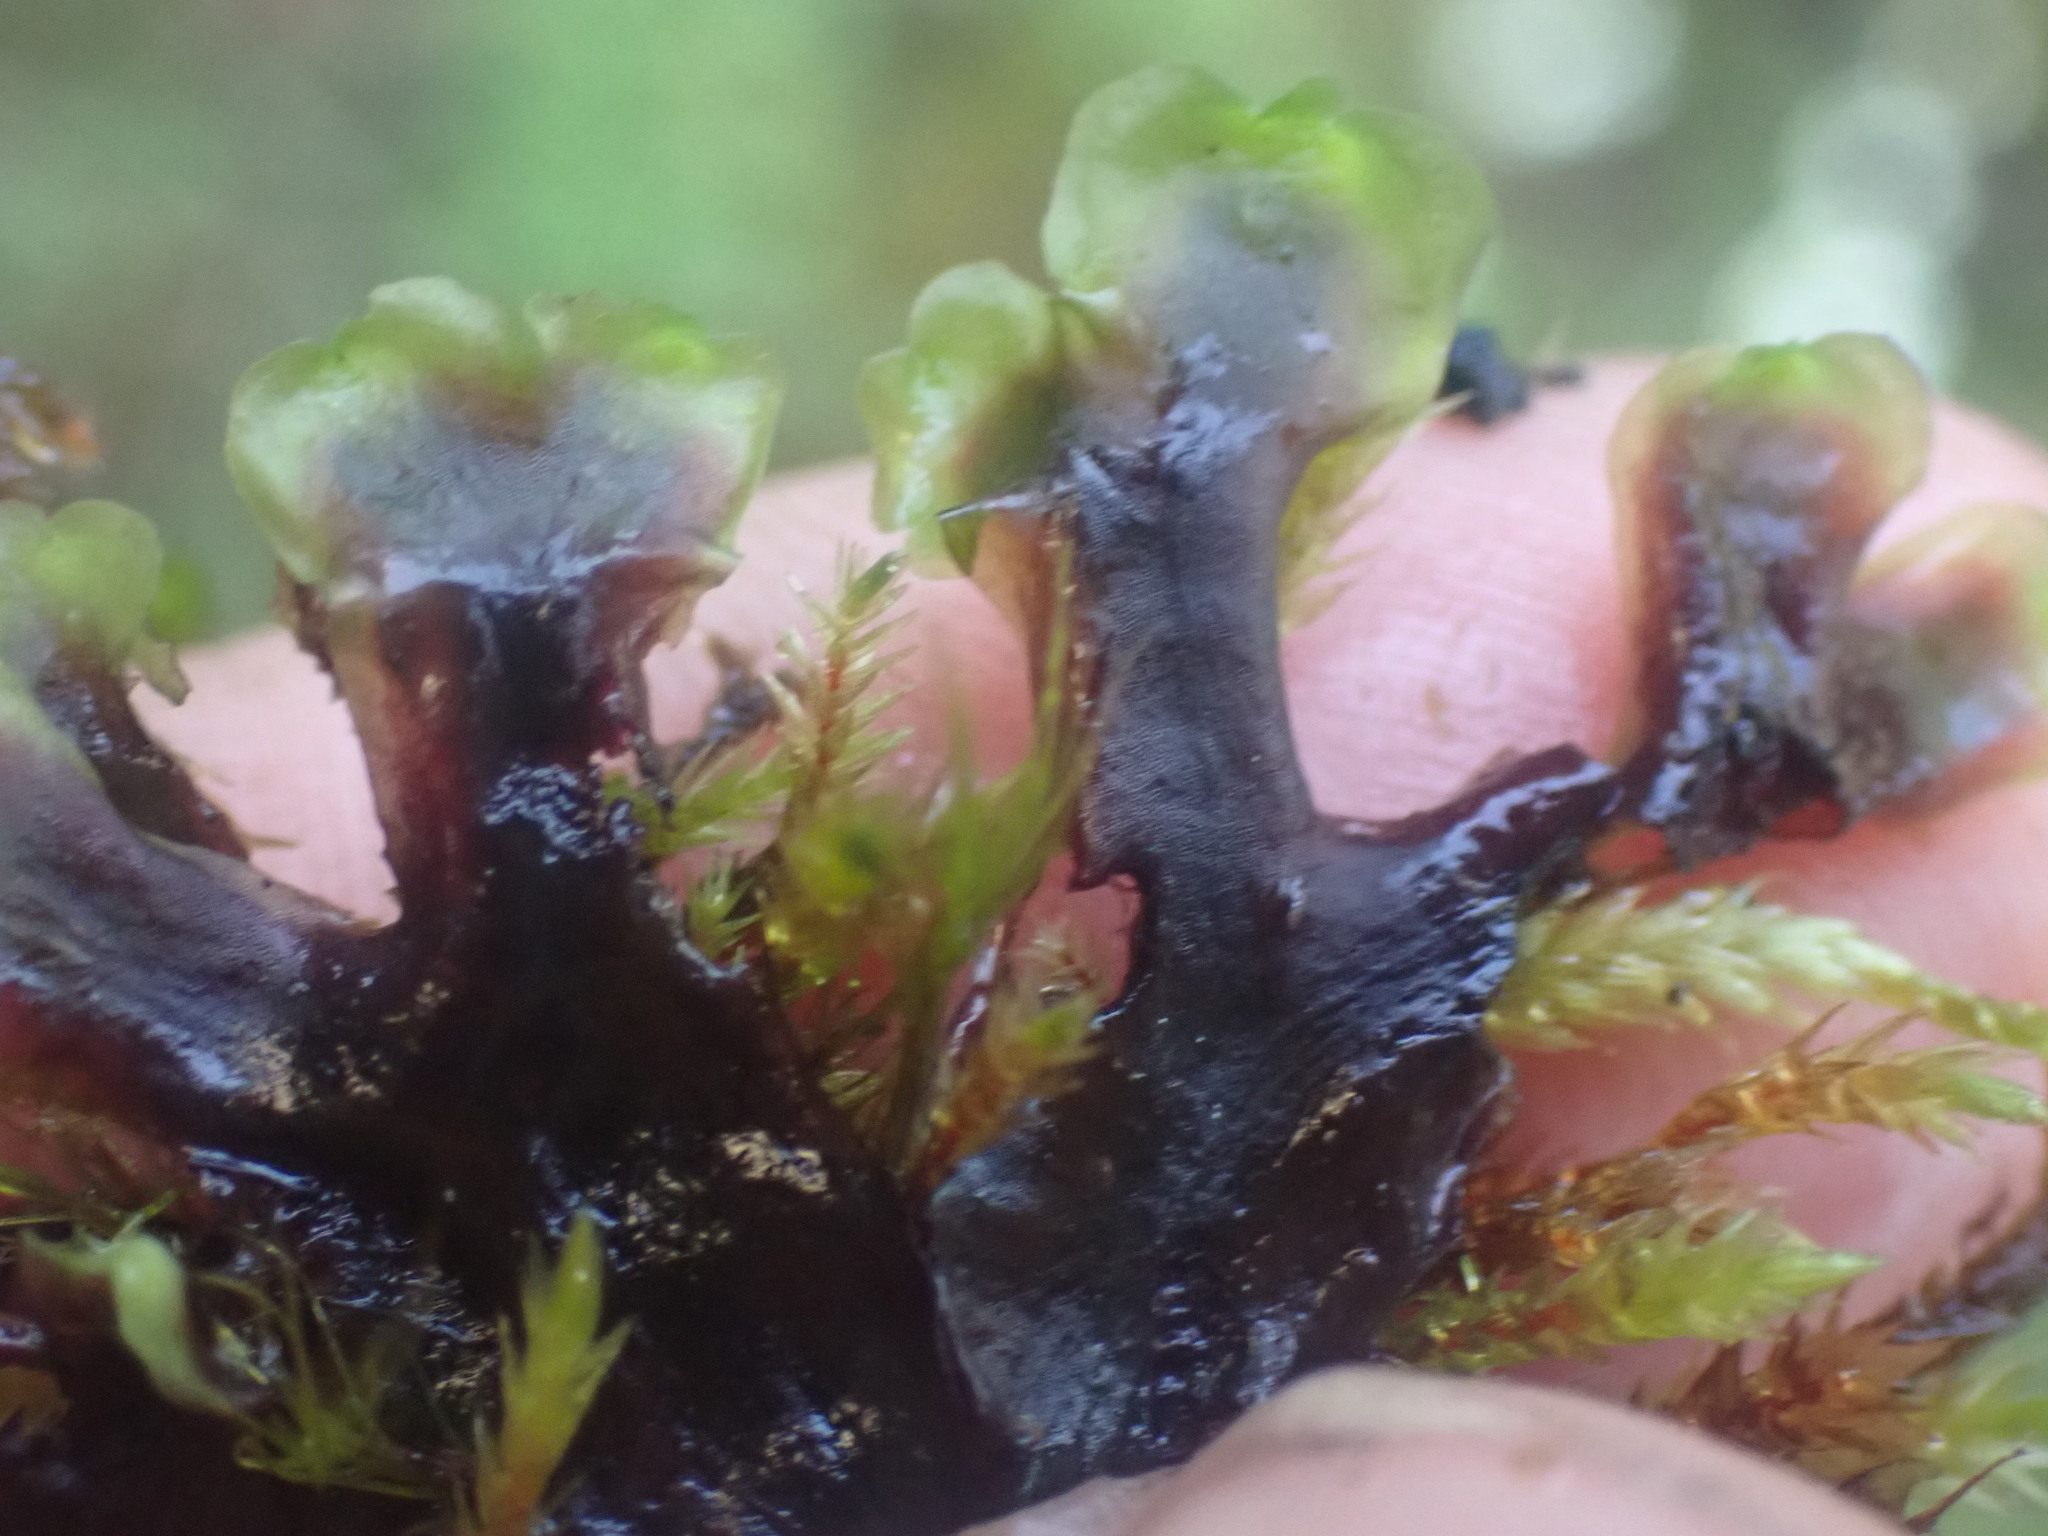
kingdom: Plantae
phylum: Marchantiophyta
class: Jungermanniopsida
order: Pelliales
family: Pelliaceae
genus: Pellia
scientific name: Pellia neesiana
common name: Nees  pellia
